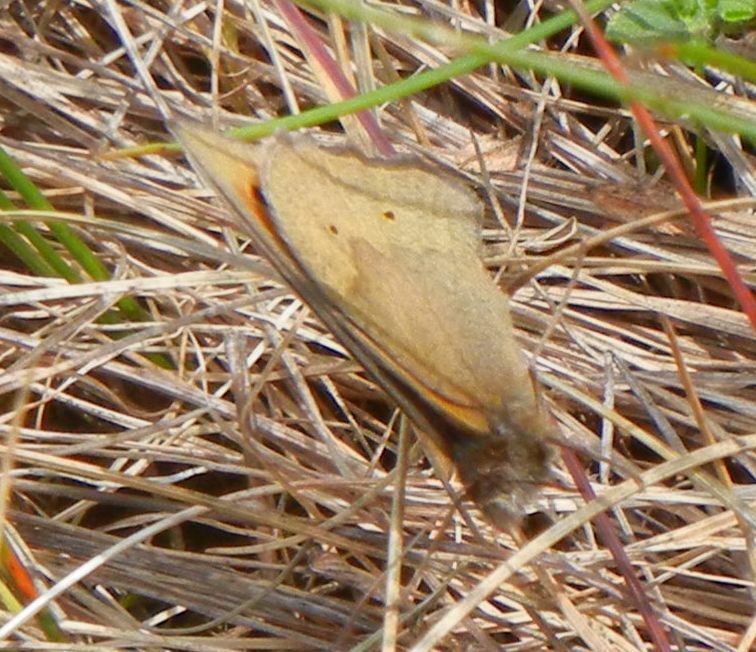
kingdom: Animalia
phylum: Arthropoda
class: Insecta
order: Lepidoptera
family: Nymphalidae
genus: Maniola
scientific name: Maniola jurtina
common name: Meadow brown
